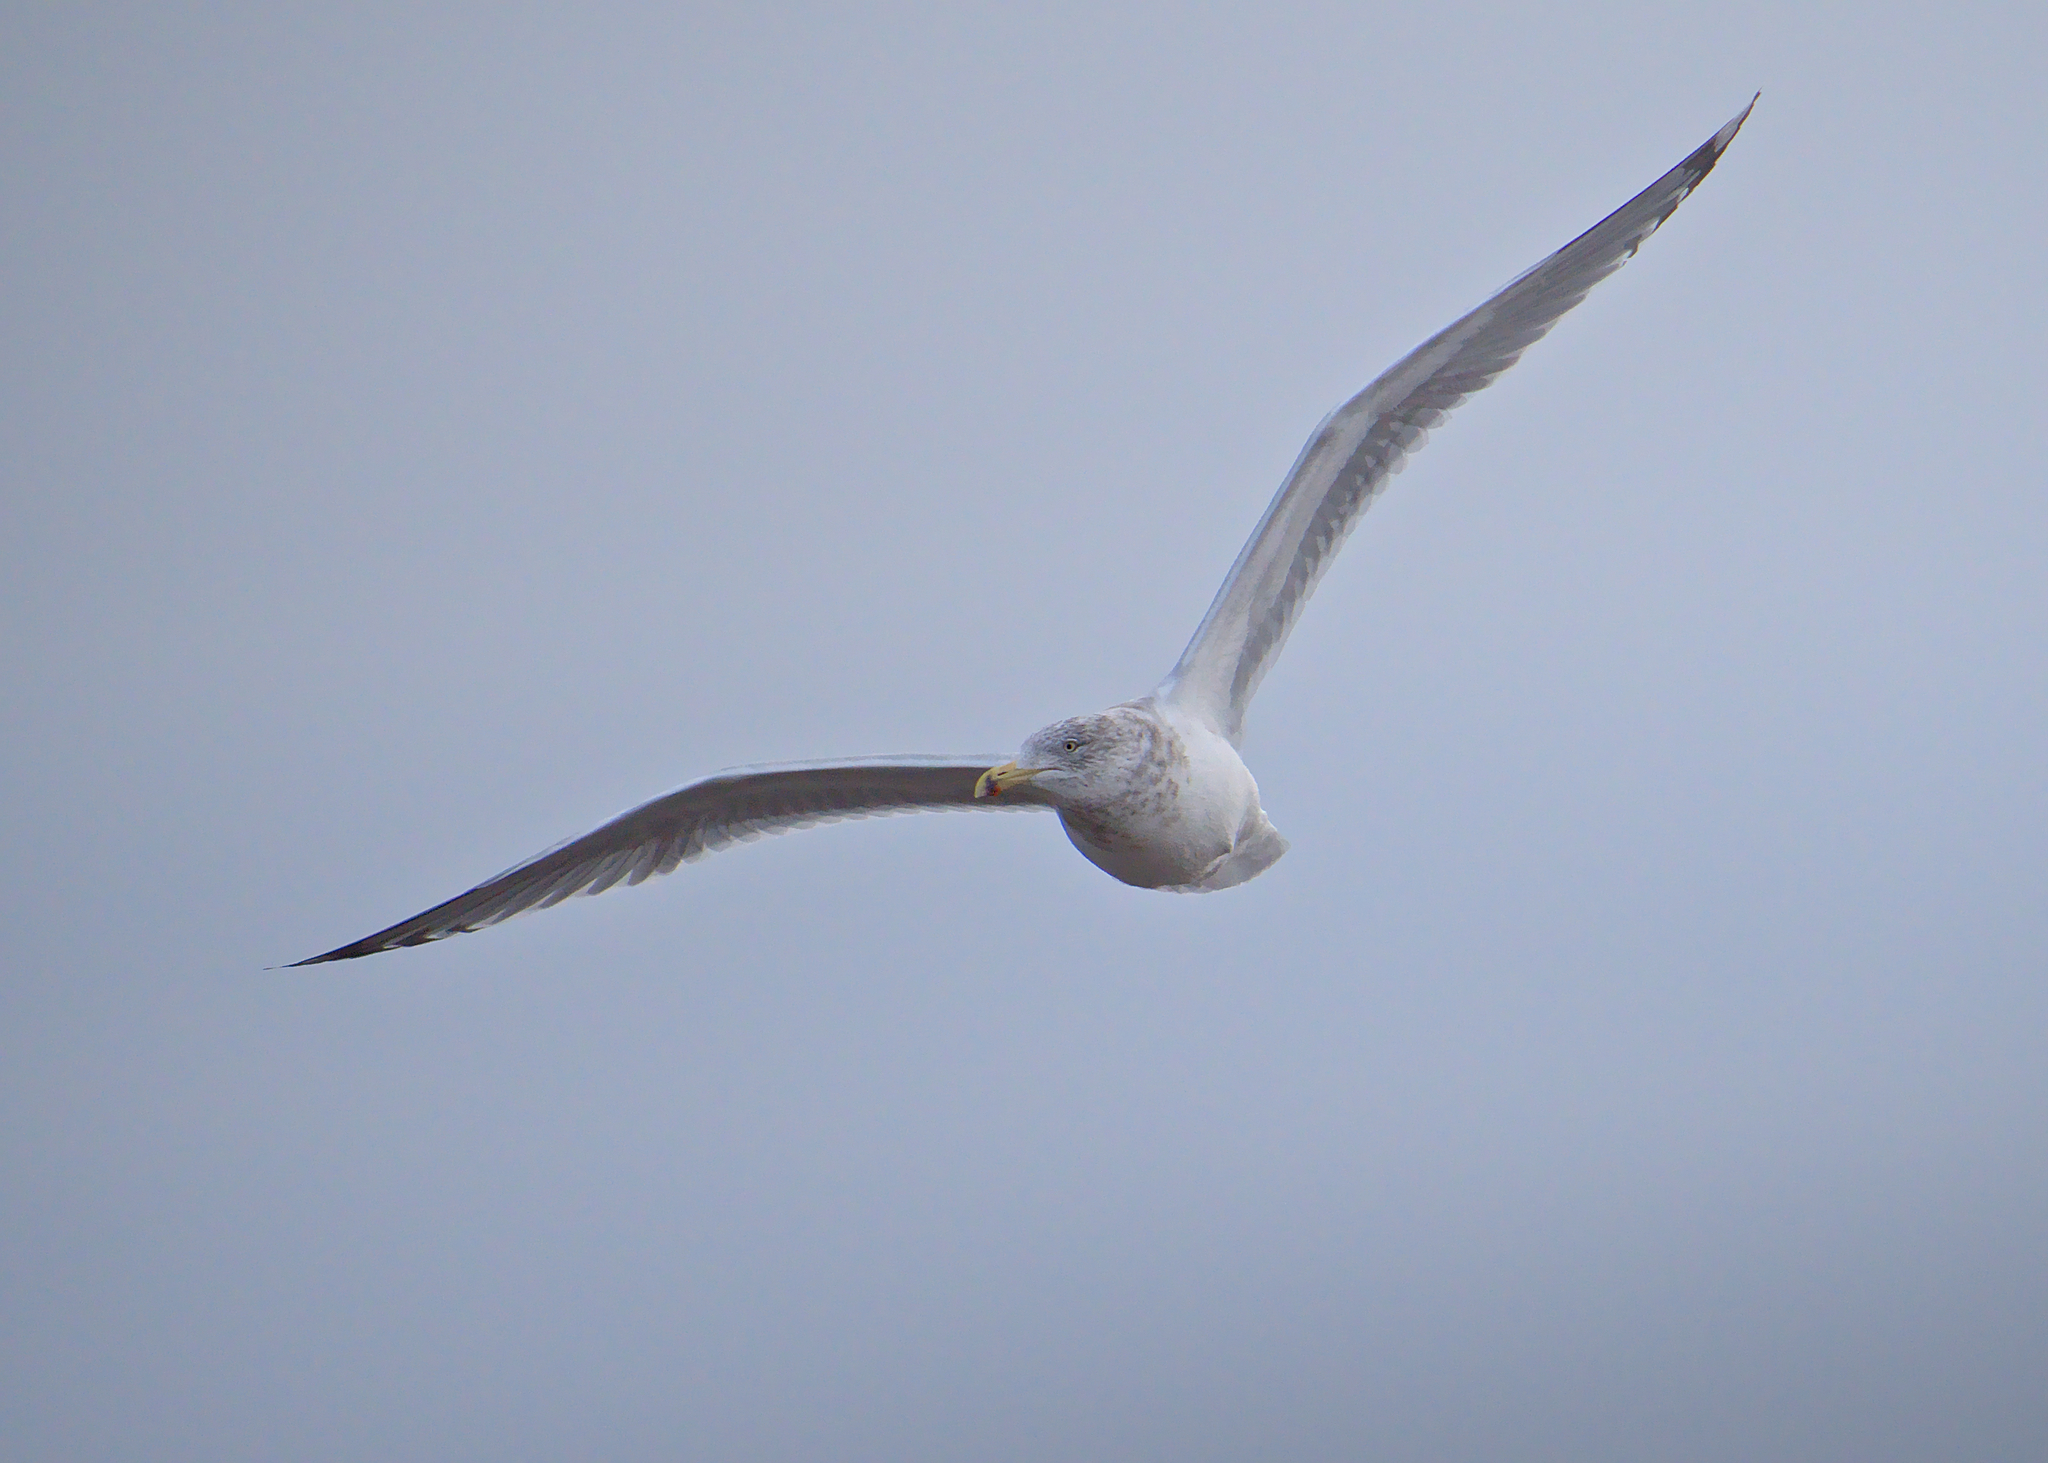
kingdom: Animalia
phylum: Chordata
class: Aves
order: Charadriiformes
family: Laridae
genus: Larus
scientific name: Larus argentatus
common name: Herring gull
